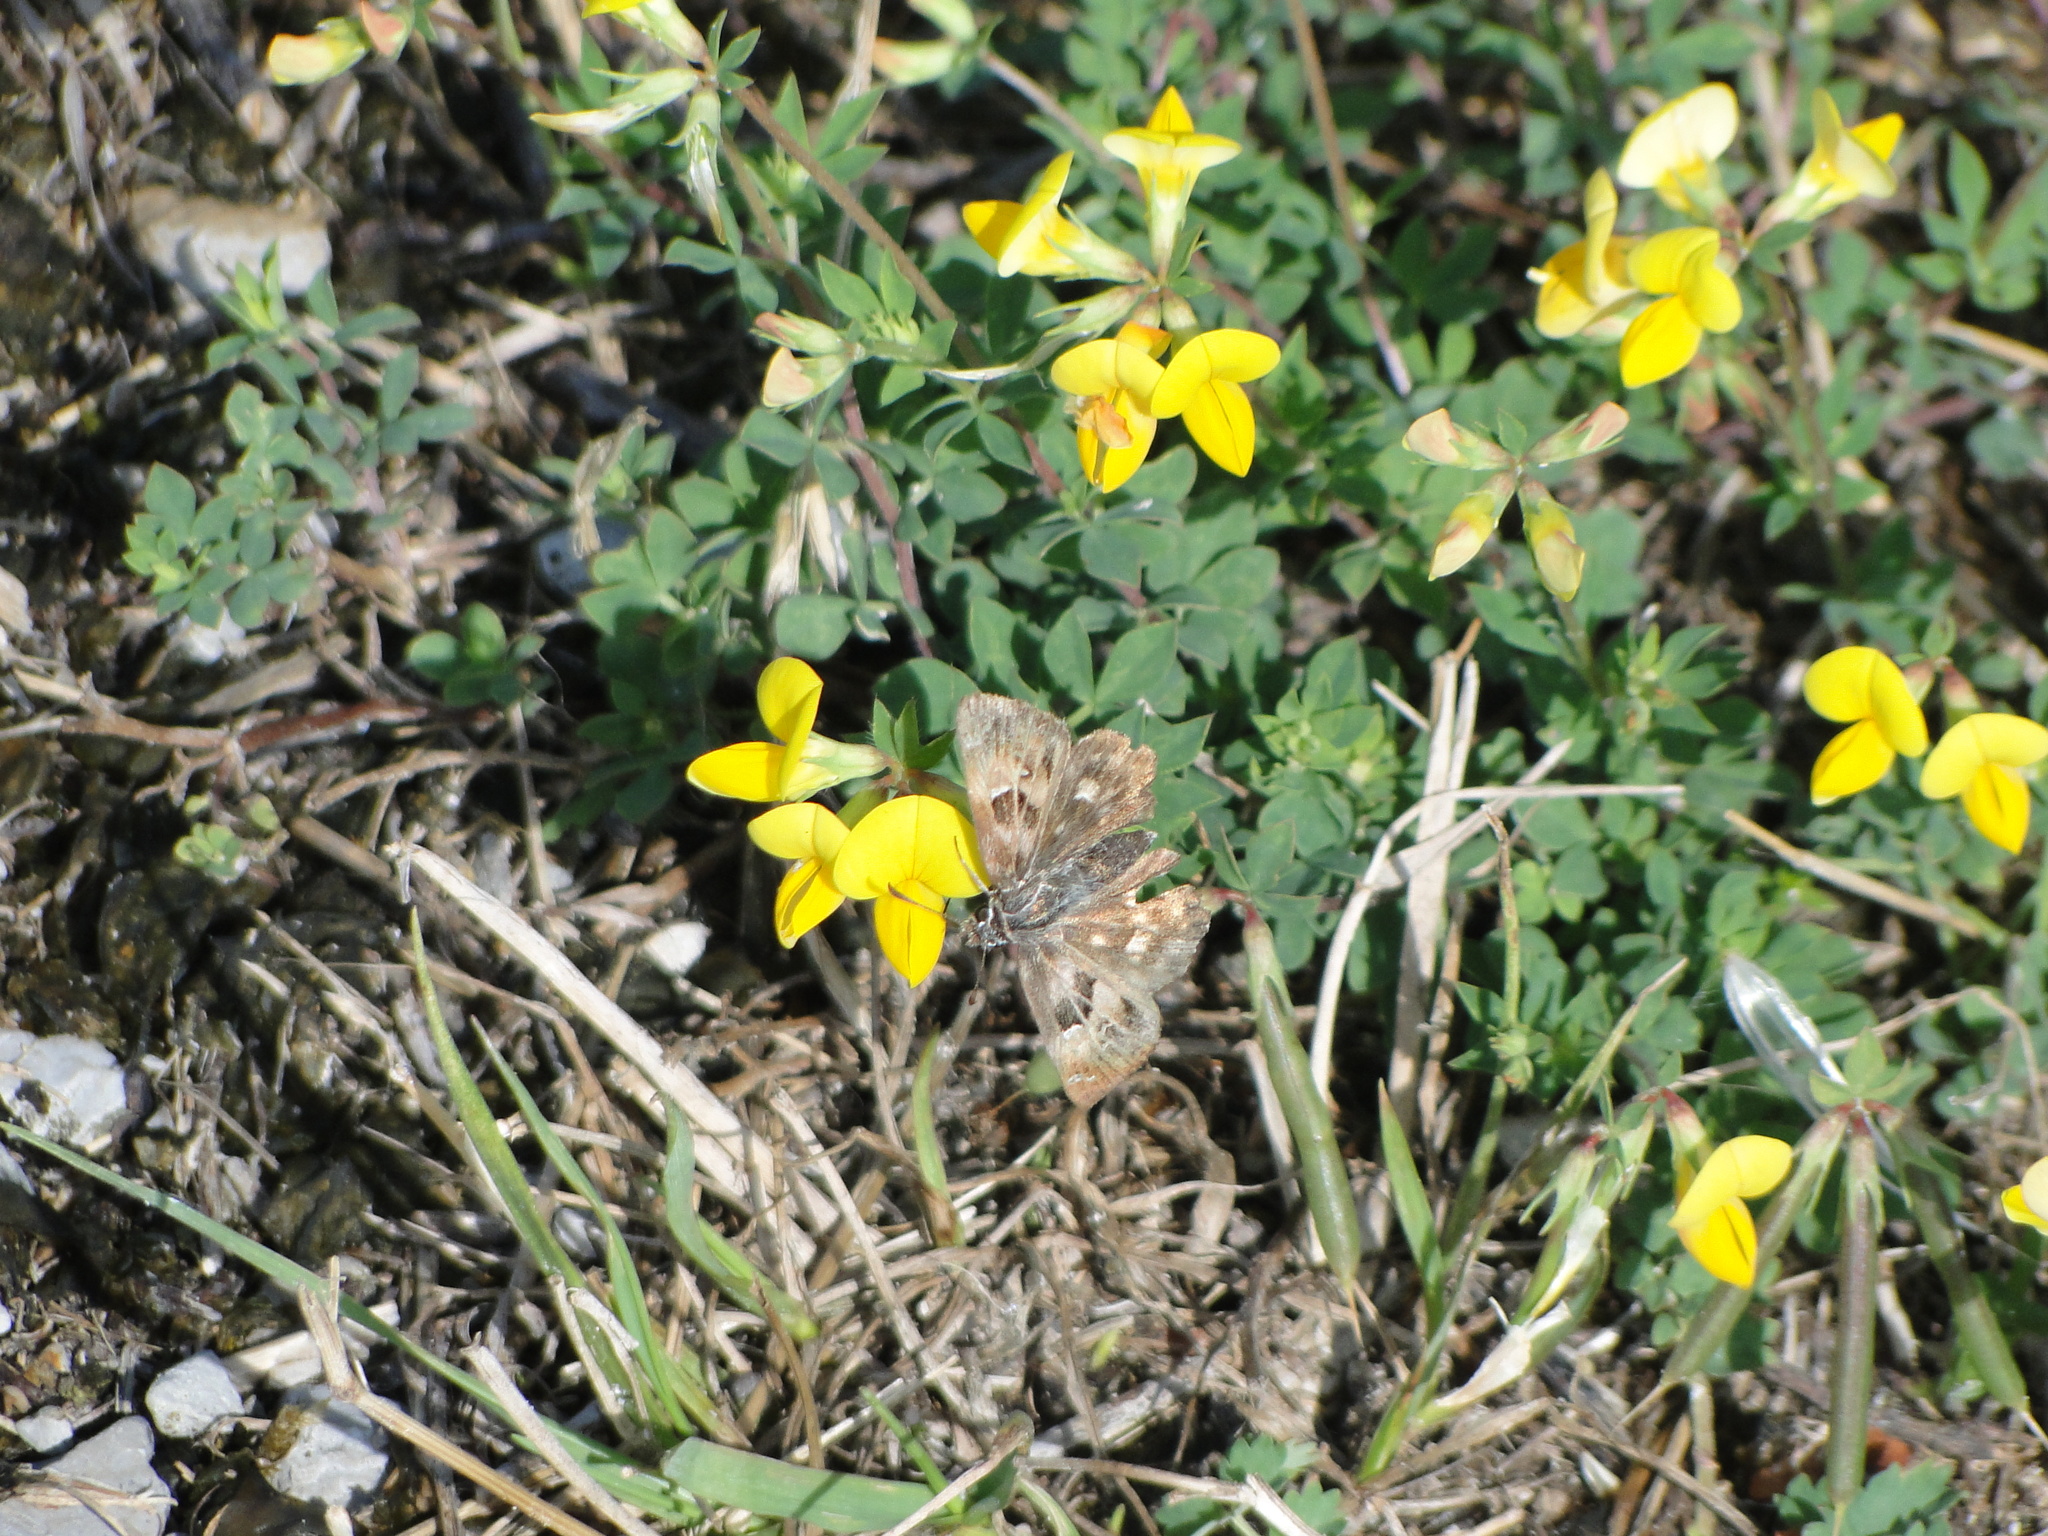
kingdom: Animalia
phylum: Arthropoda
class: Insecta
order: Lepidoptera
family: Hesperiidae
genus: Carcharodus
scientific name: Carcharodus alceae
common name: Mallow skipper
